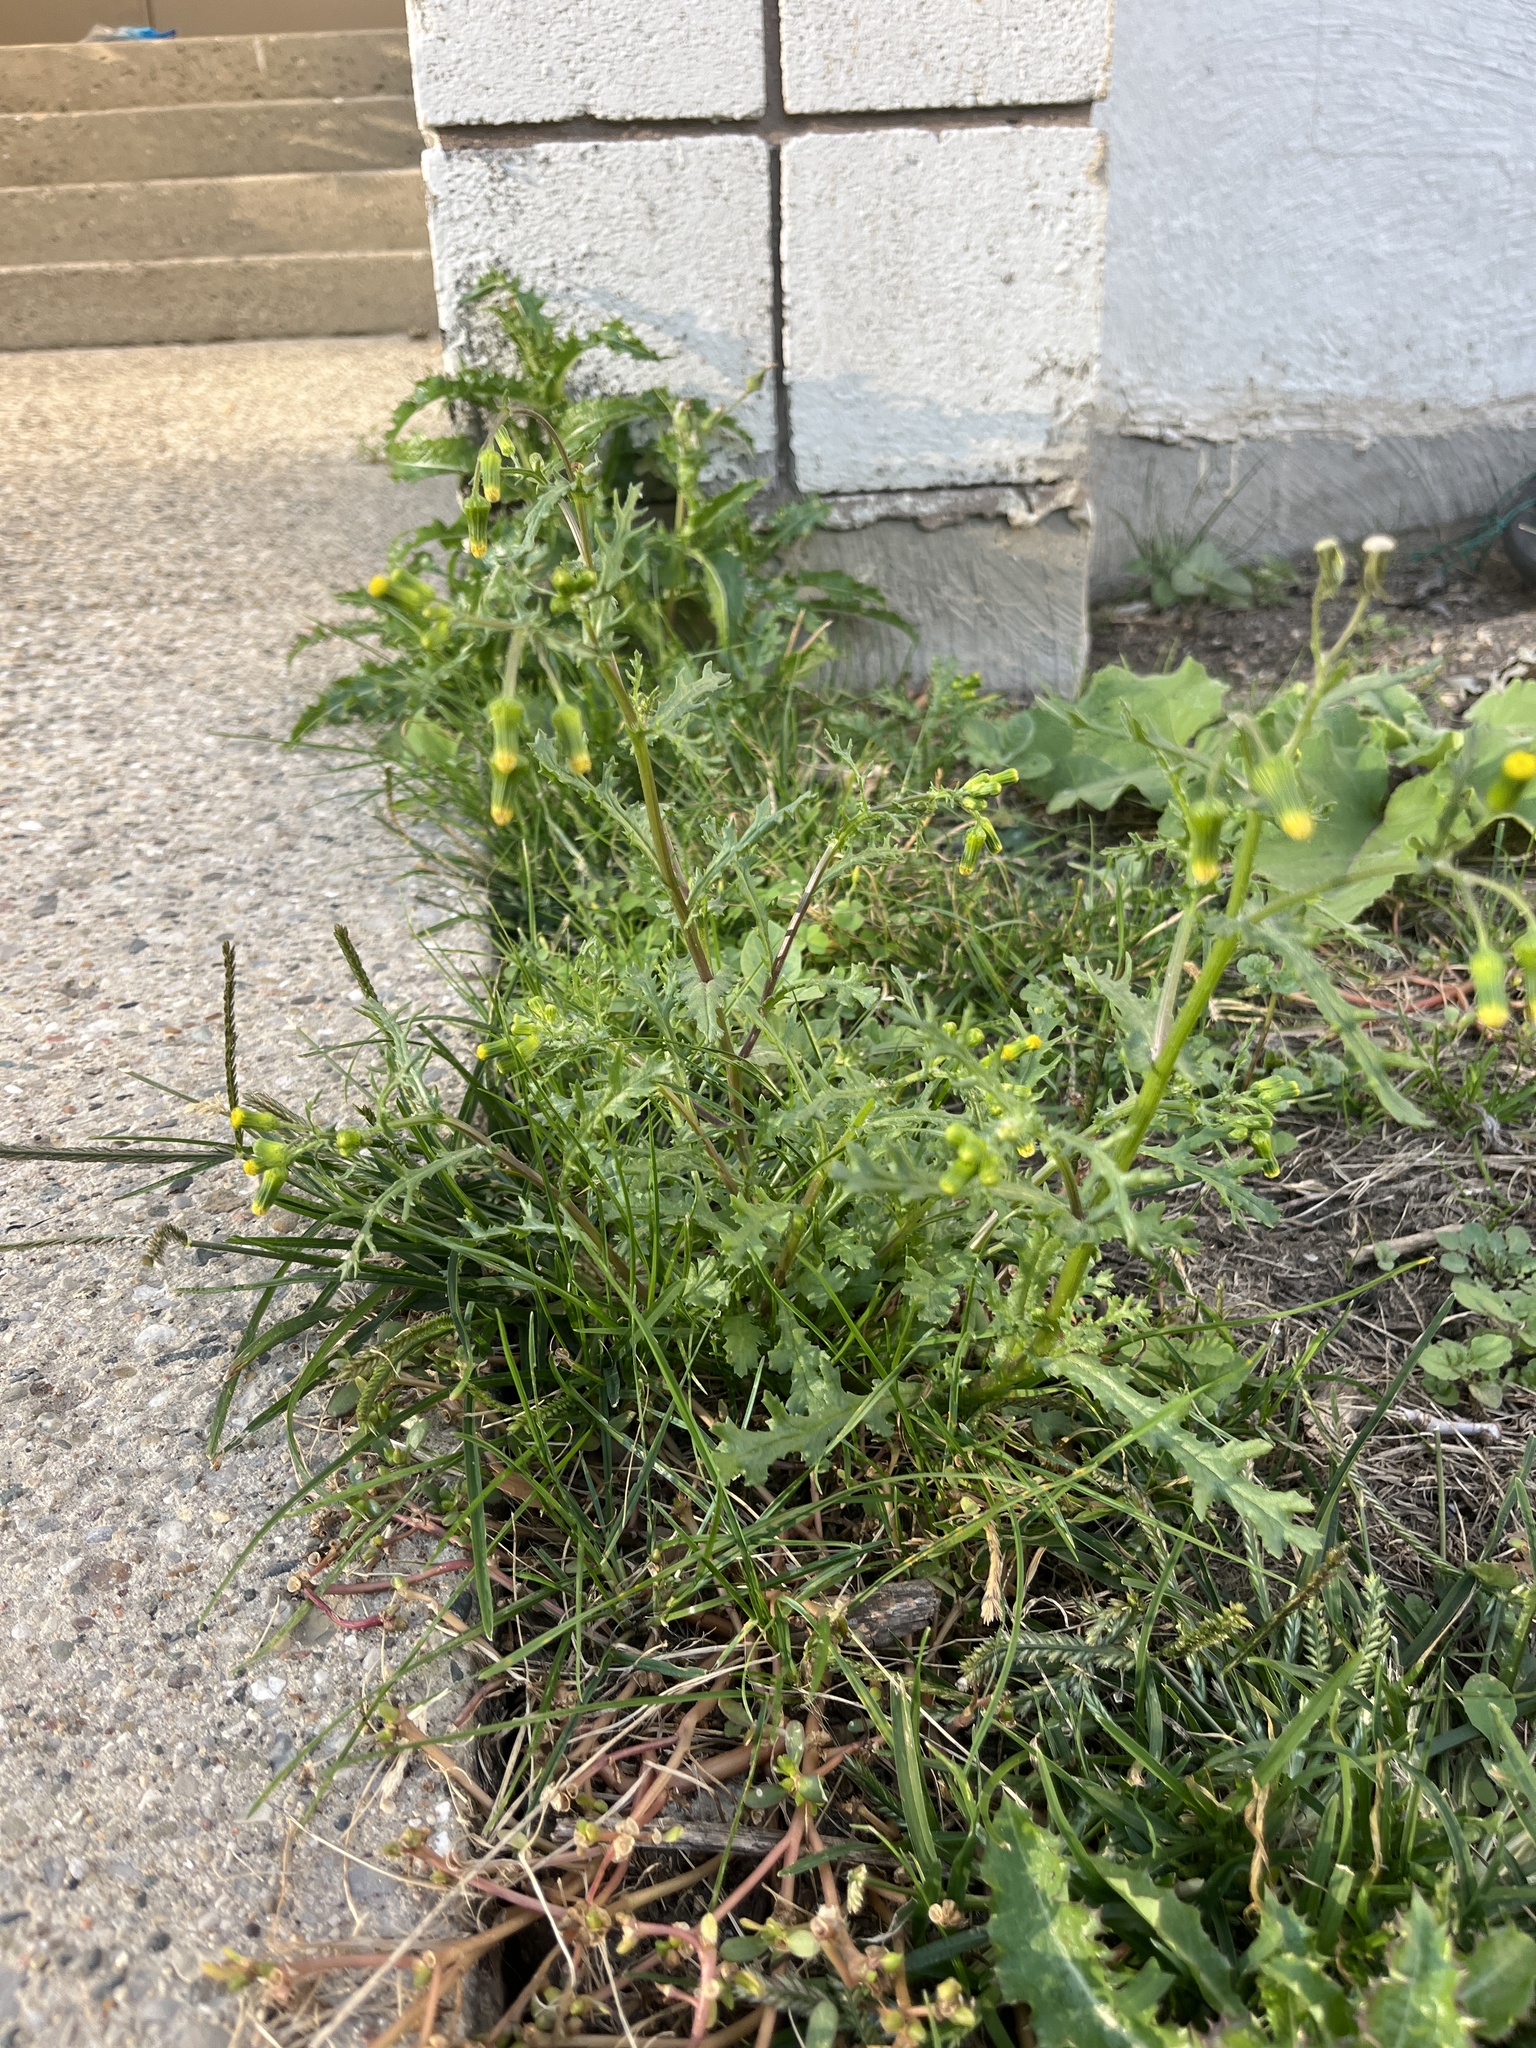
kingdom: Plantae
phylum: Tracheophyta
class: Magnoliopsida
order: Asterales
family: Asteraceae
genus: Senecio
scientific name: Senecio vulgaris
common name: Old-man-in-the-spring
